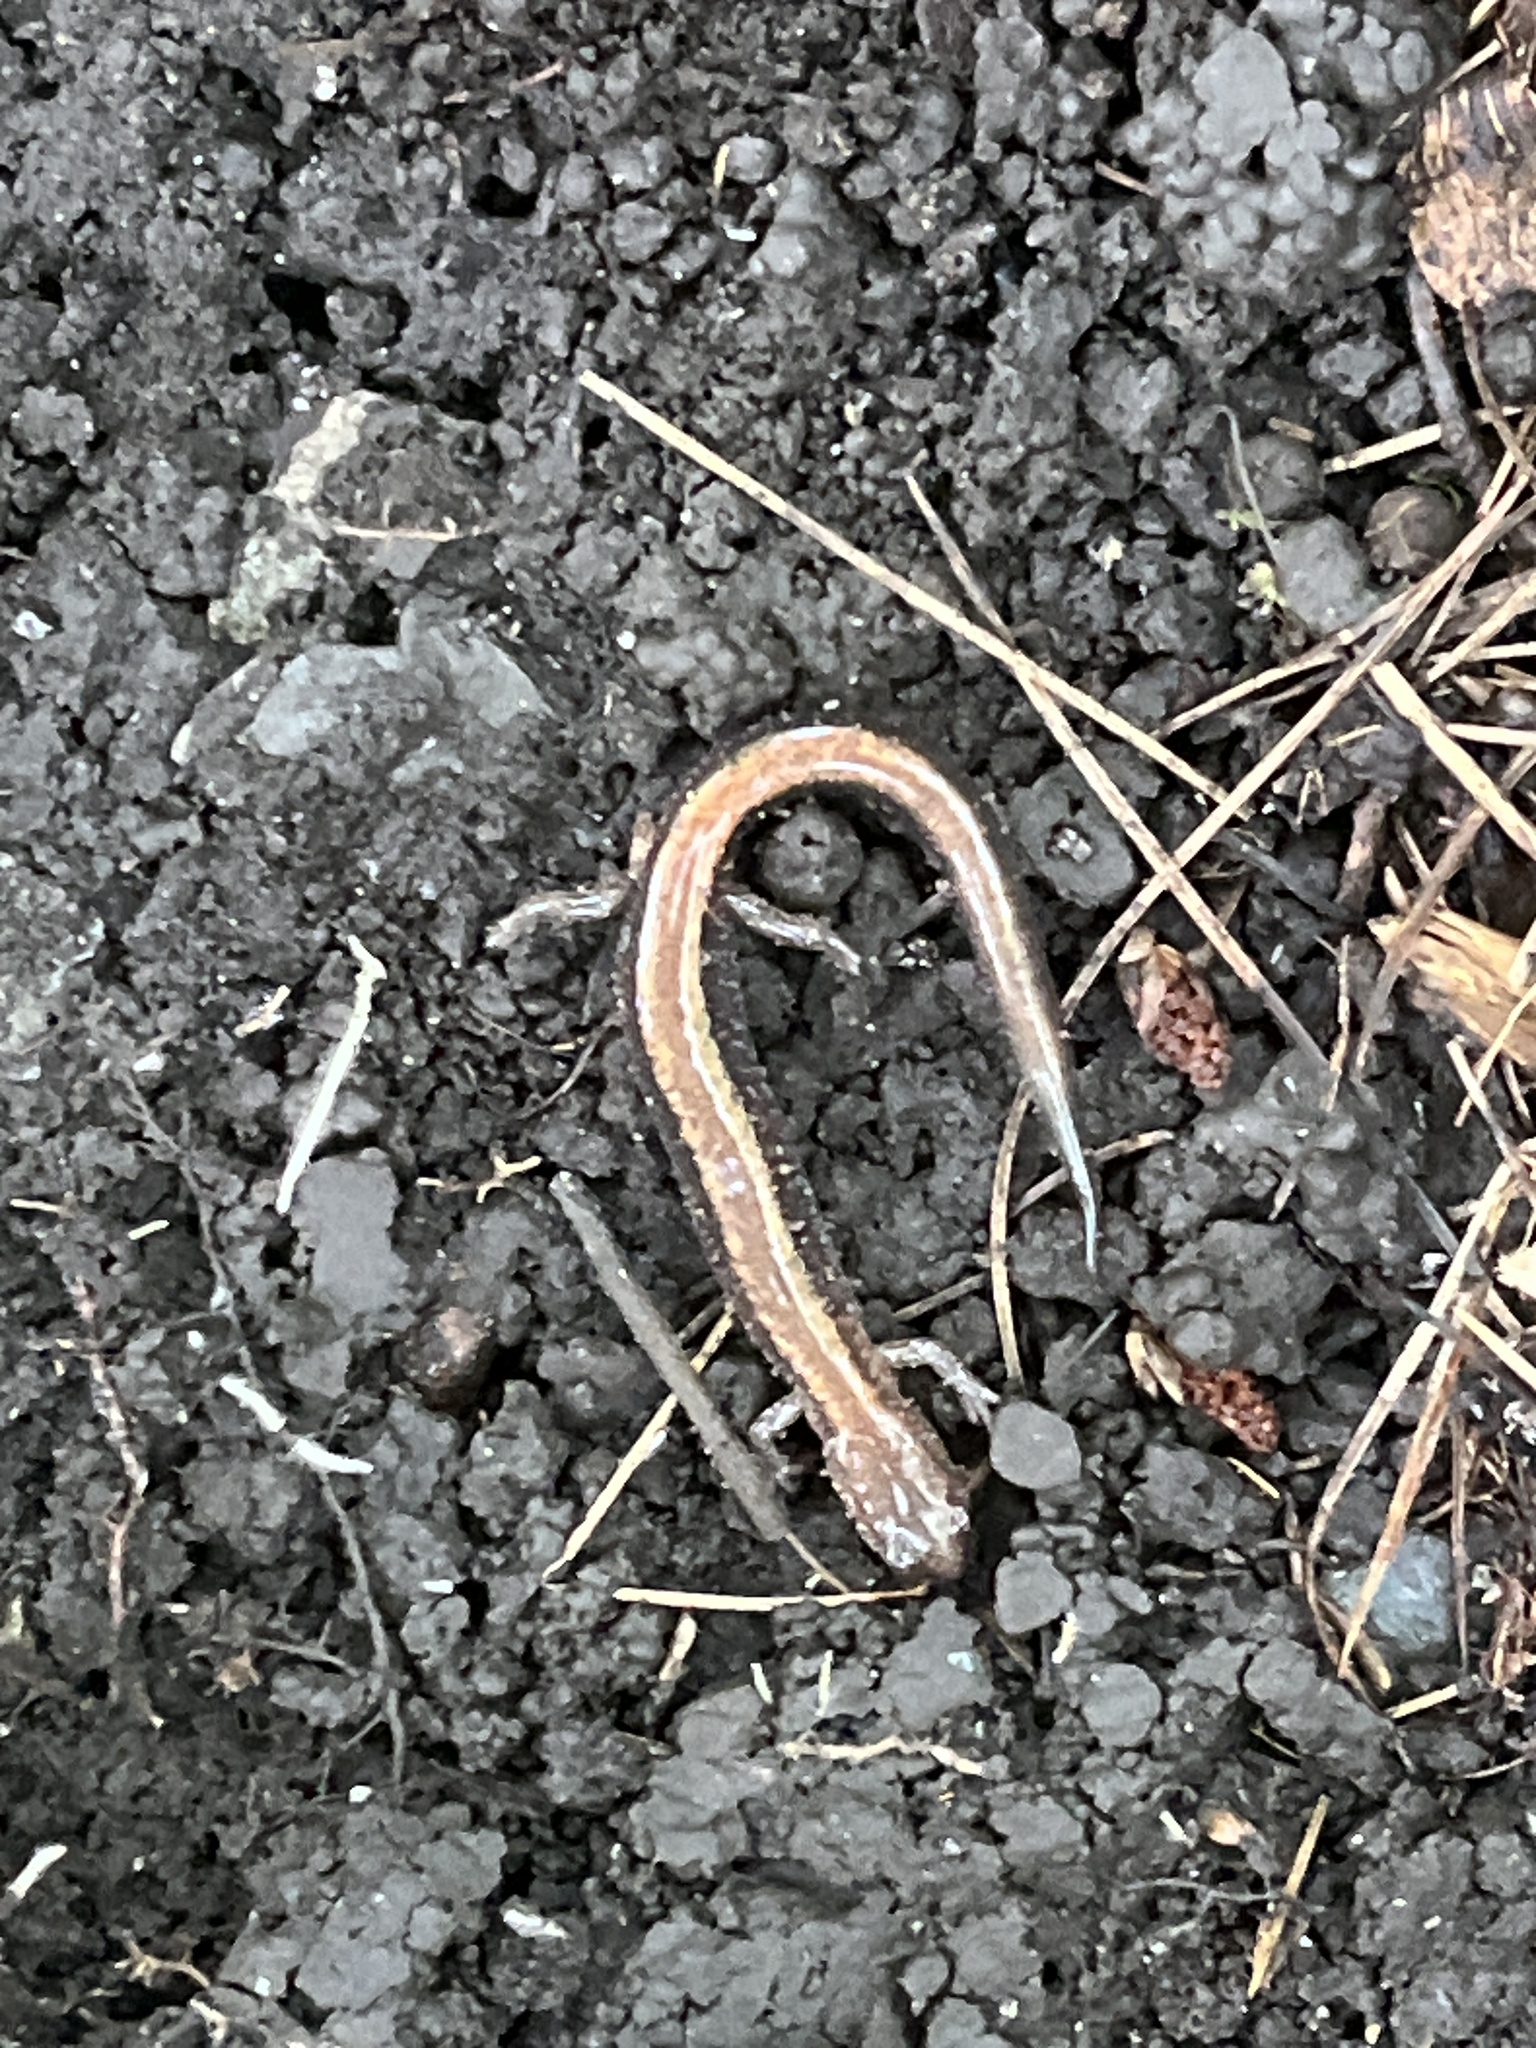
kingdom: Animalia
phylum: Chordata
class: Amphibia
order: Caudata
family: Plethodontidae
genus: Plethodon
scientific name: Plethodon cinereus
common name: Redback salamander
